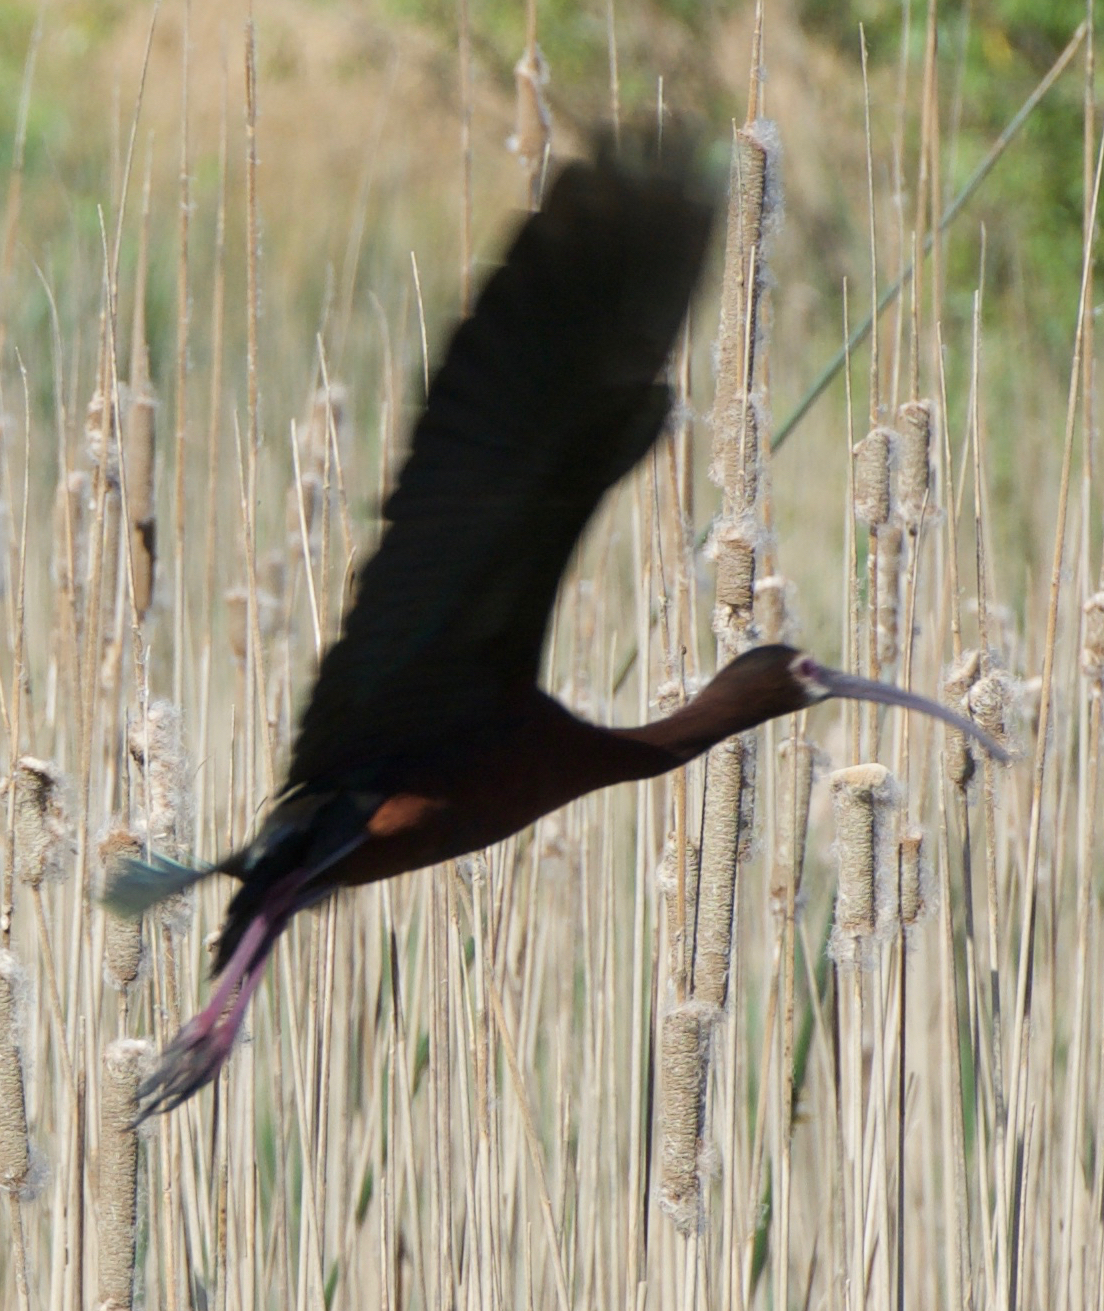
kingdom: Animalia
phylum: Chordata
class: Aves
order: Pelecaniformes
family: Threskiornithidae
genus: Plegadis
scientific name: Plegadis chihi
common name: White-faced ibis
